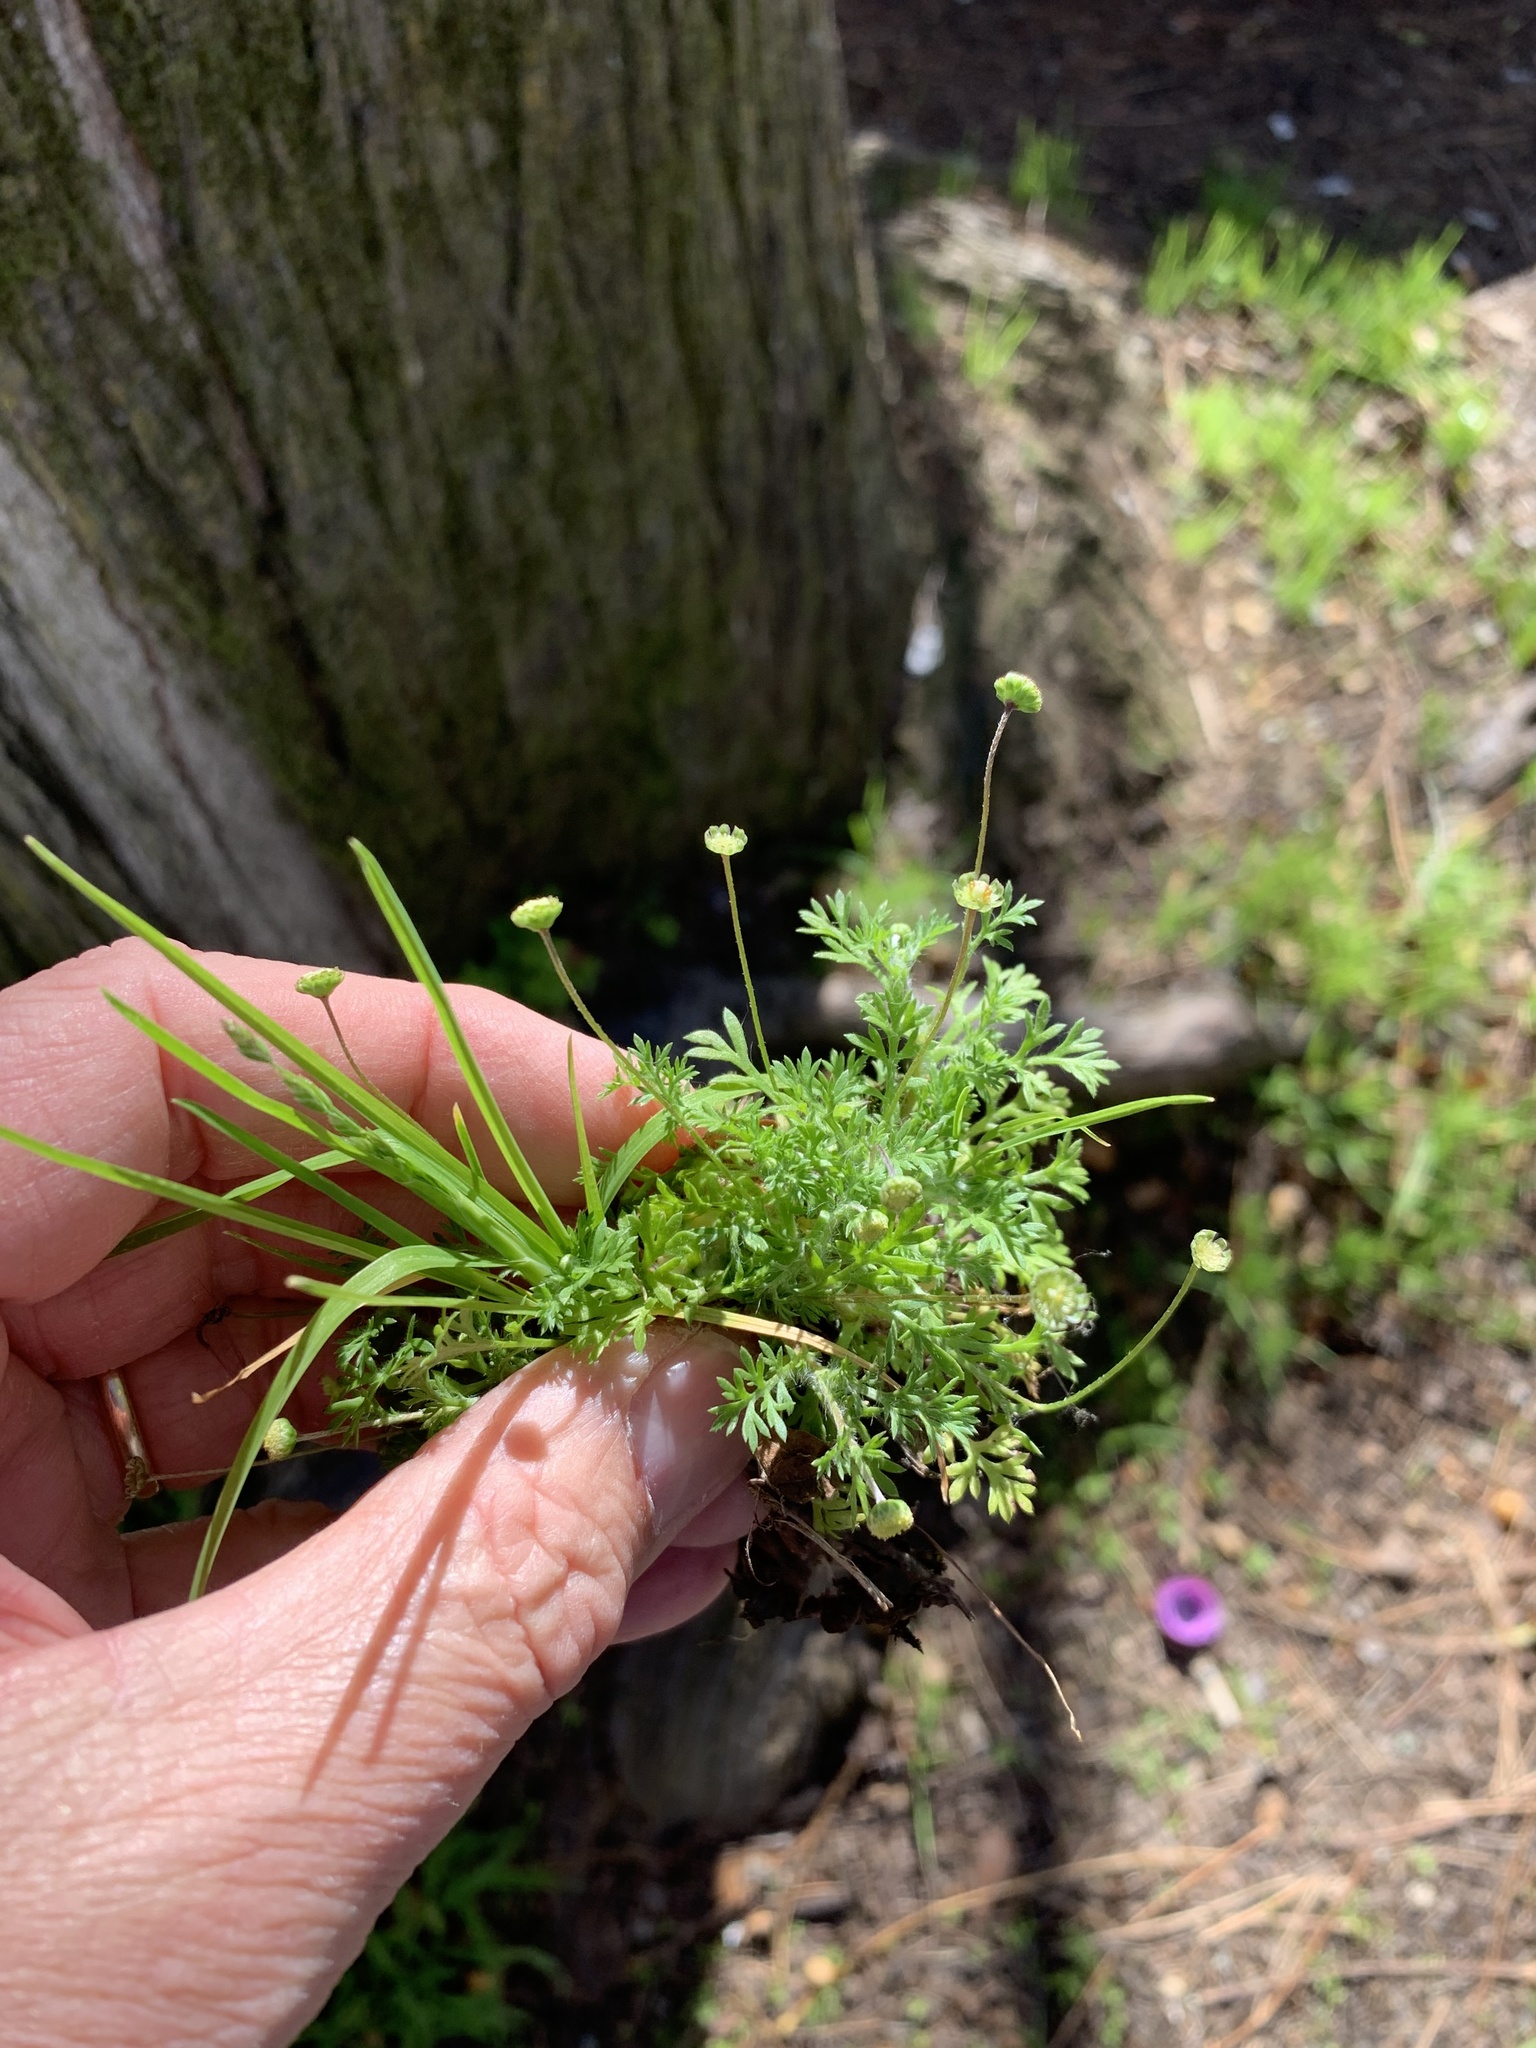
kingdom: Plantae
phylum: Tracheophyta
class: Magnoliopsida
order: Asterales
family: Asteraceae
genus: Cotula
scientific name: Cotula australis
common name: Australian waterbuttons
